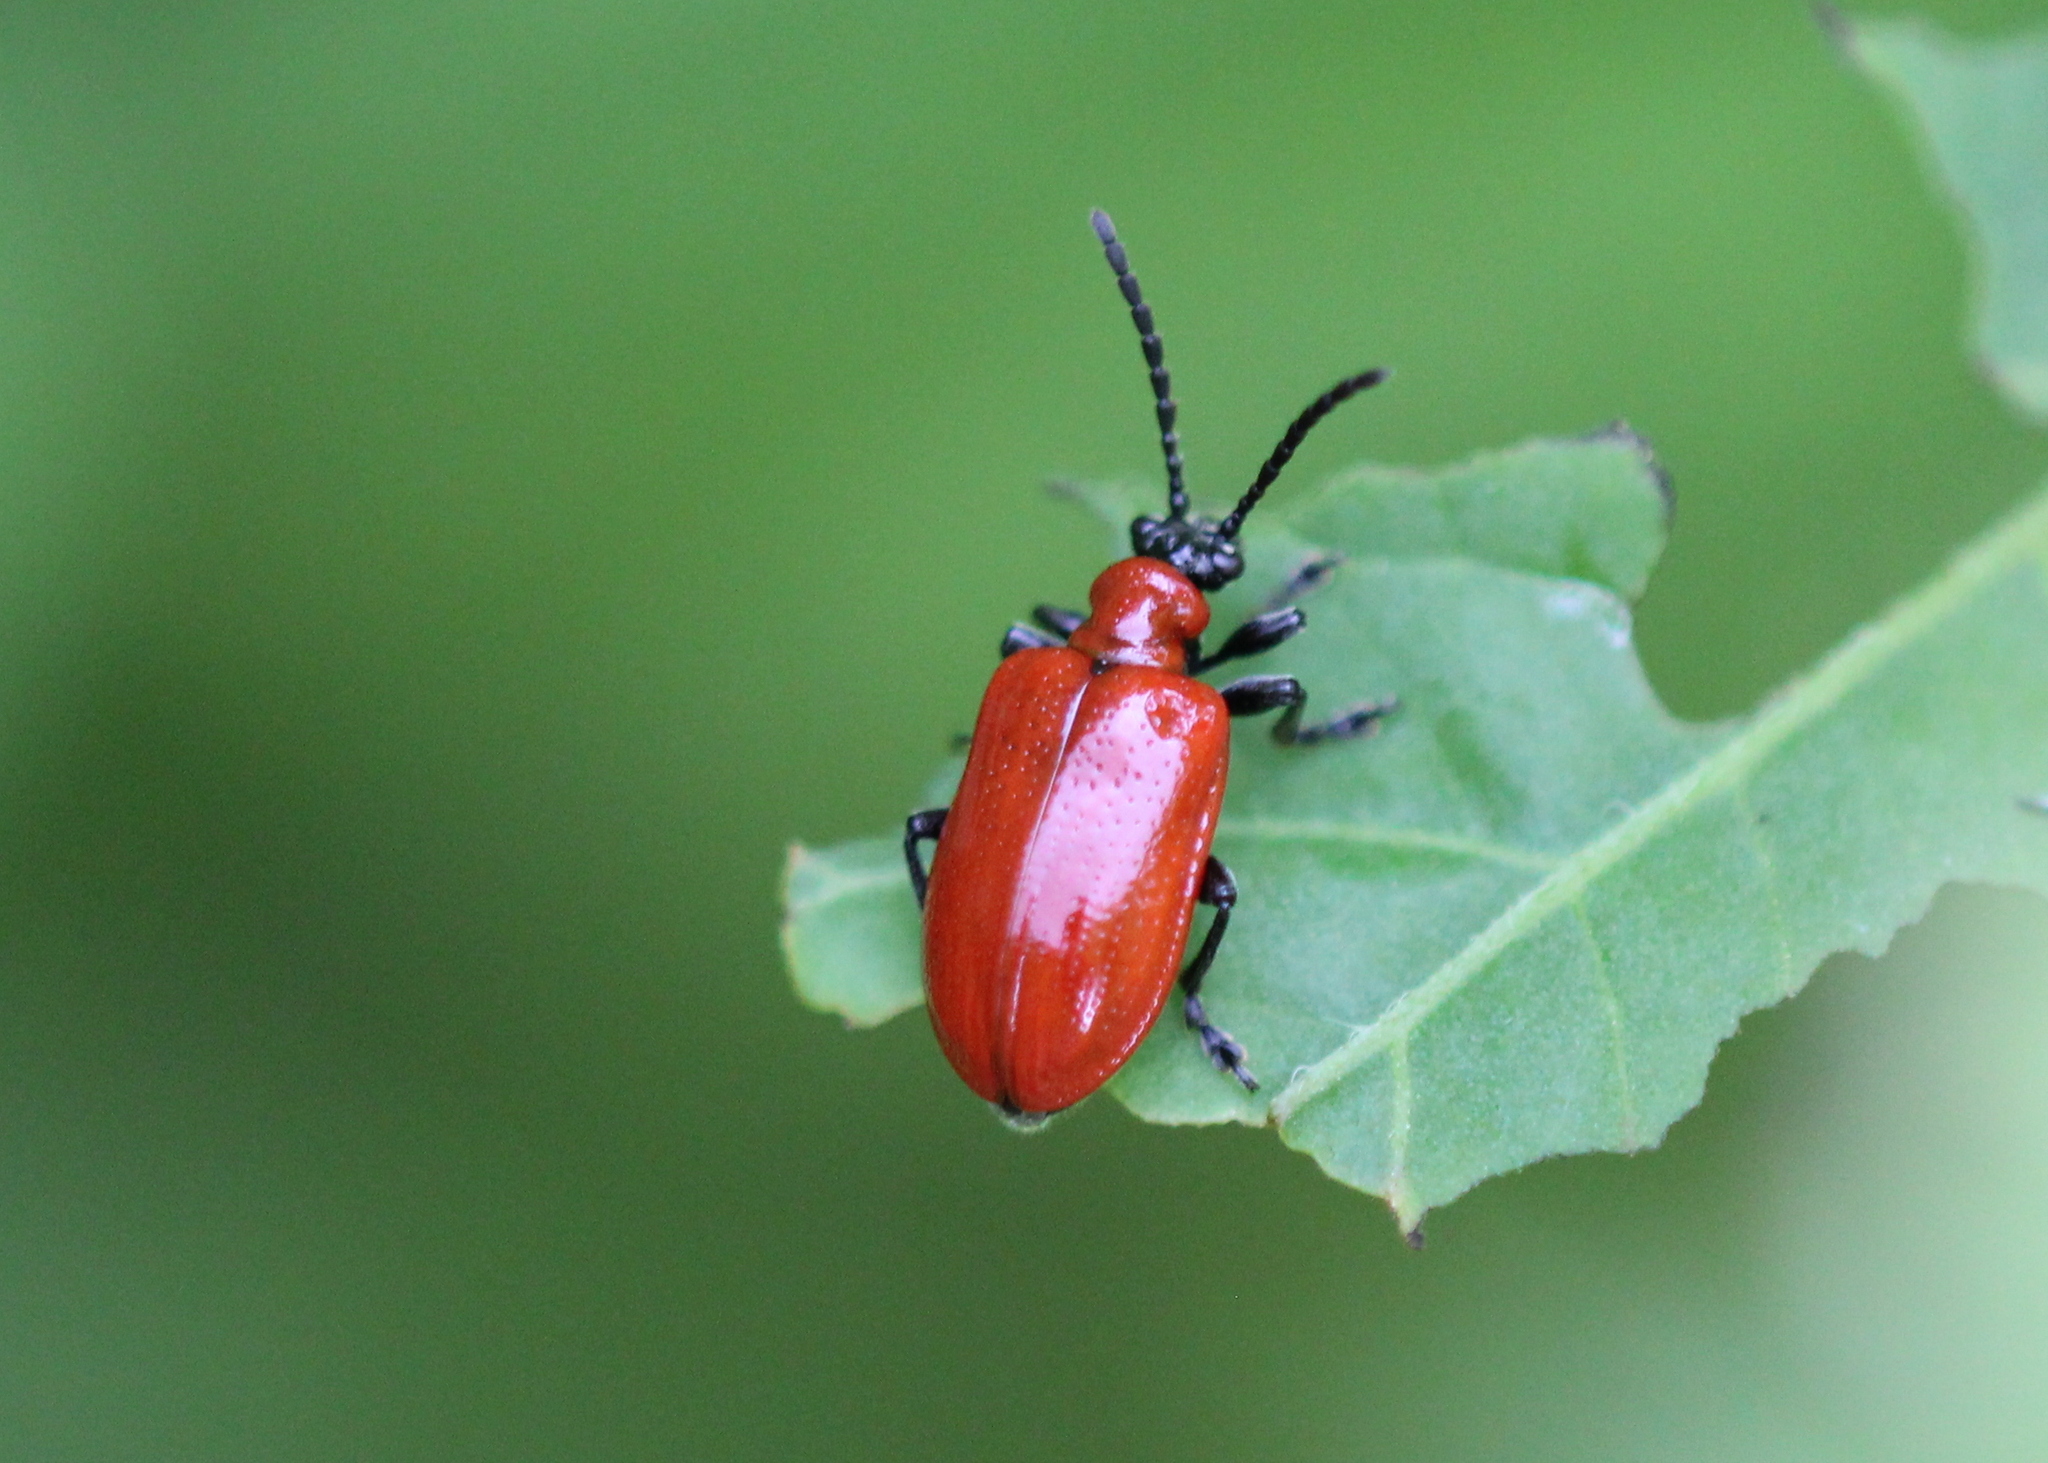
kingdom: Animalia
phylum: Arthropoda
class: Insecta
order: Coleoptera
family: Chrysomelidae
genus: Lilioceris
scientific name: Lilioceris lilii
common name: Lily beetle
